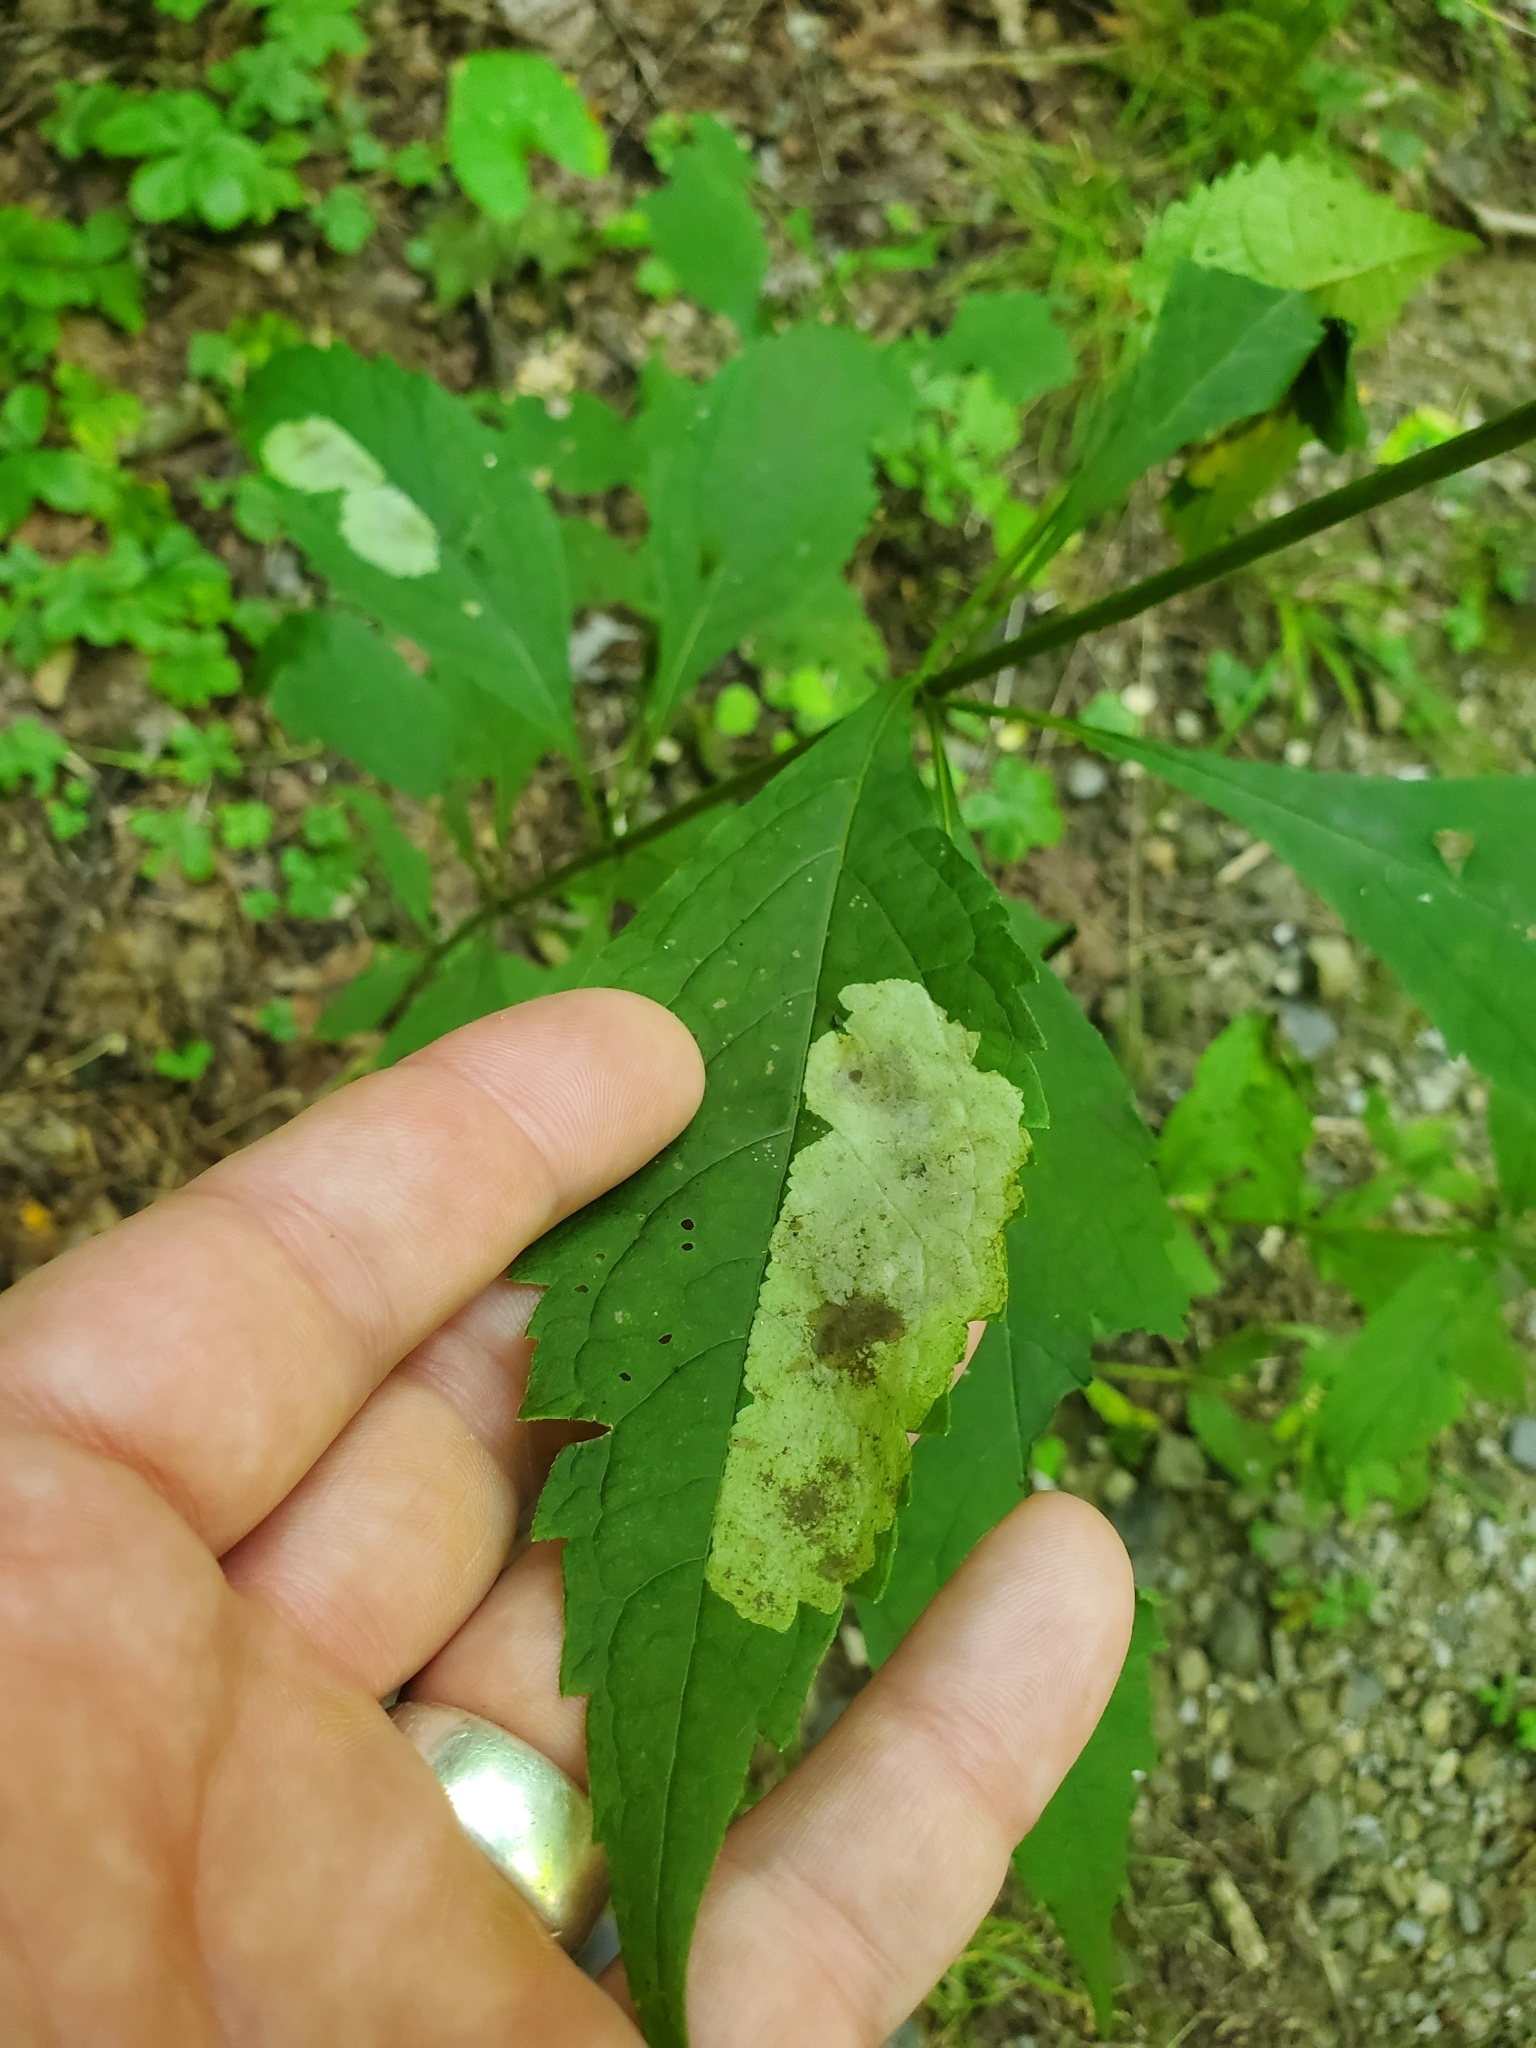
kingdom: Animalia
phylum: Arthropoda
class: Insecta
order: Diptera
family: Agromyzidae
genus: Calycomyza
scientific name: Calycomyza flavinotum
